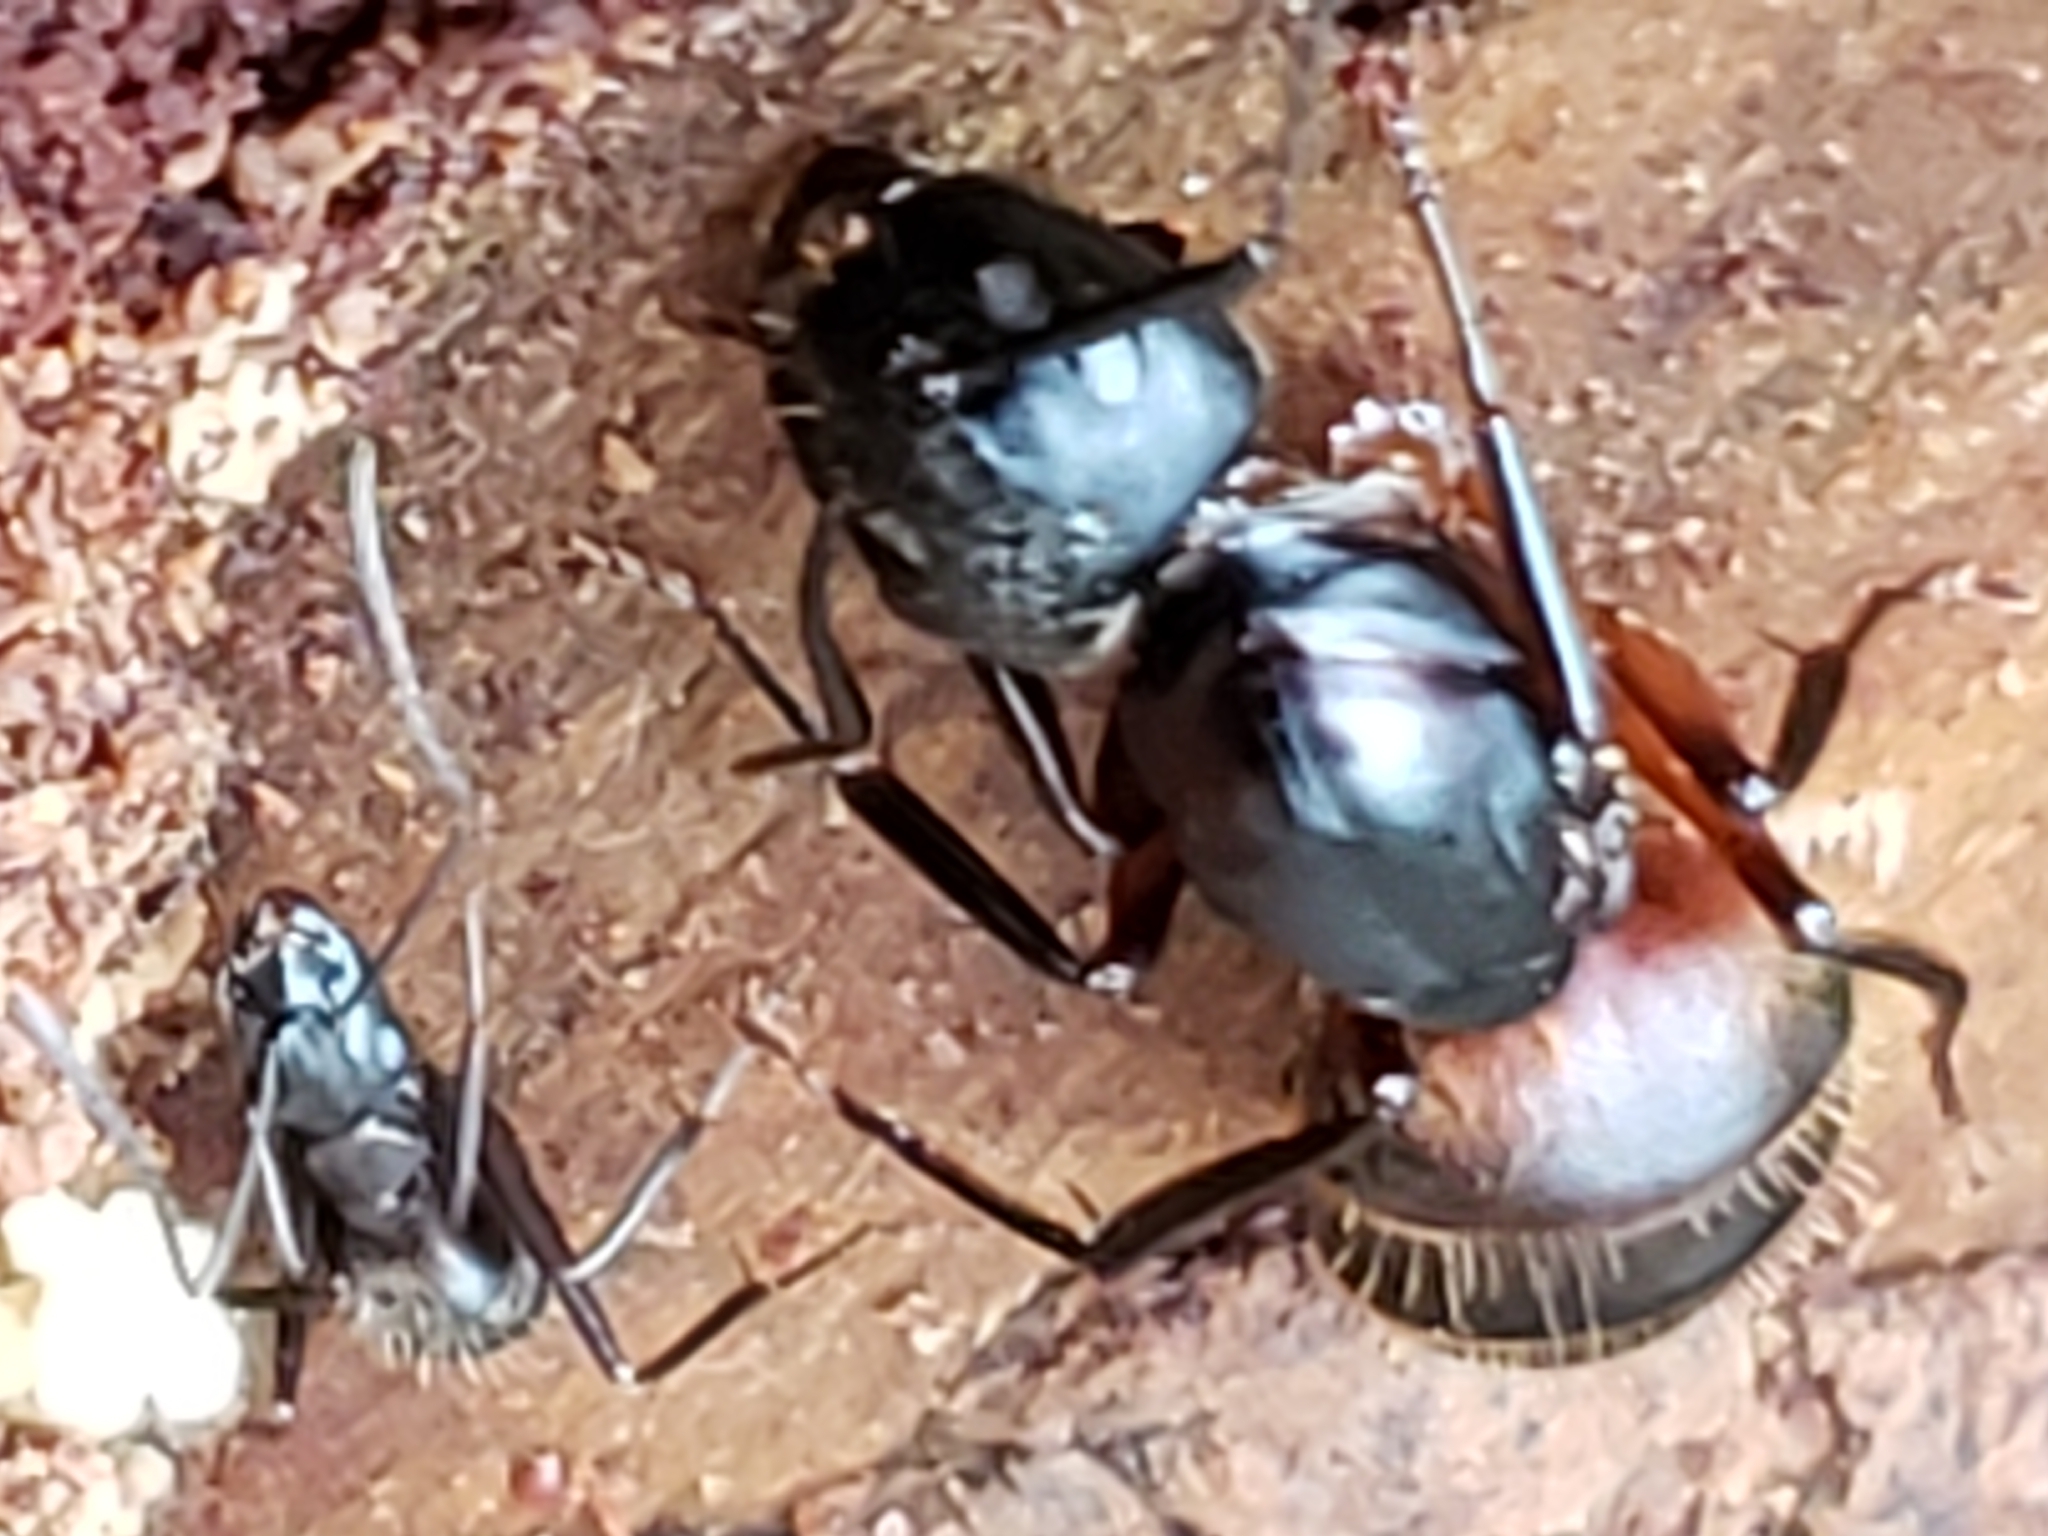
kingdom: Animalia
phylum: Arthropoda
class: Insecta
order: Hymenoptera
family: Formicidae
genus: Camponotus
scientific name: Camponotus chromaiodes
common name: Red carpenter ant
